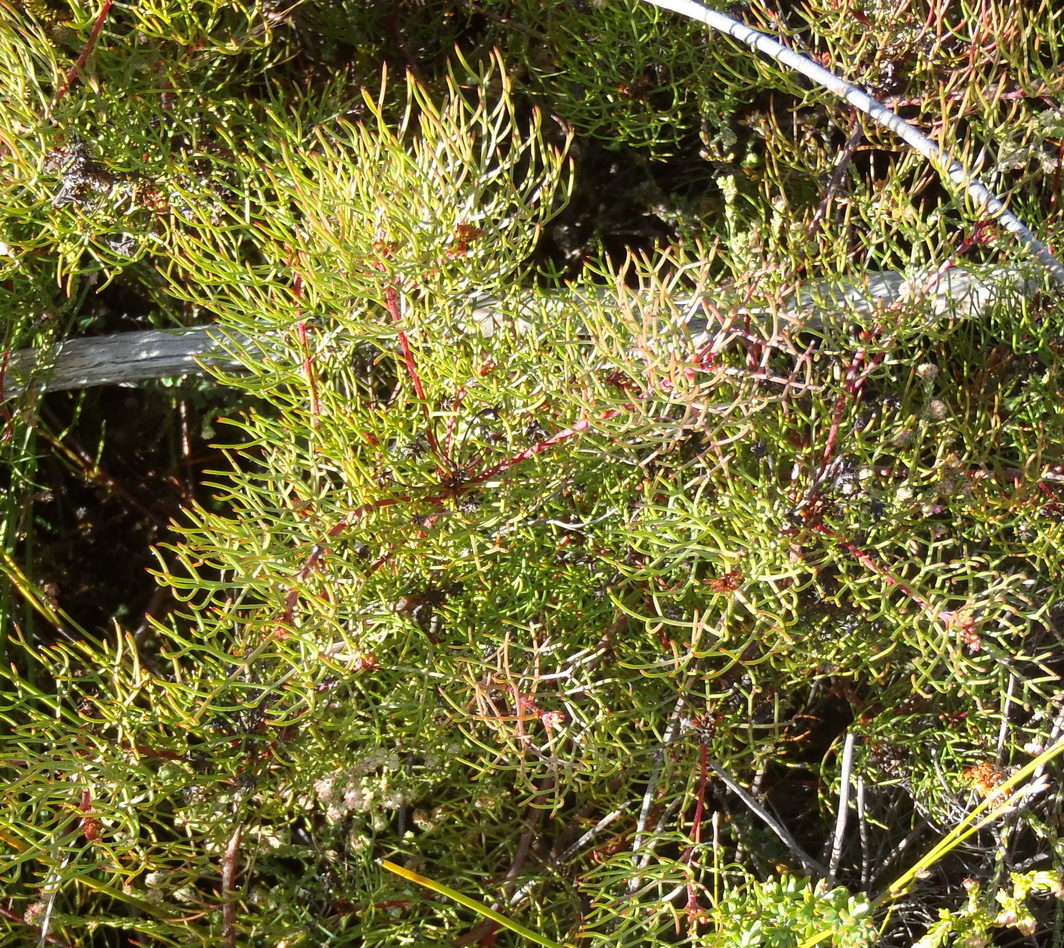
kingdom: Plantae
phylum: Tracheophyta
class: Magnoliopsida
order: Proteales
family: Proteaceae
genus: Serruria
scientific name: Serruria fasciflora
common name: Common pin spiderhead
